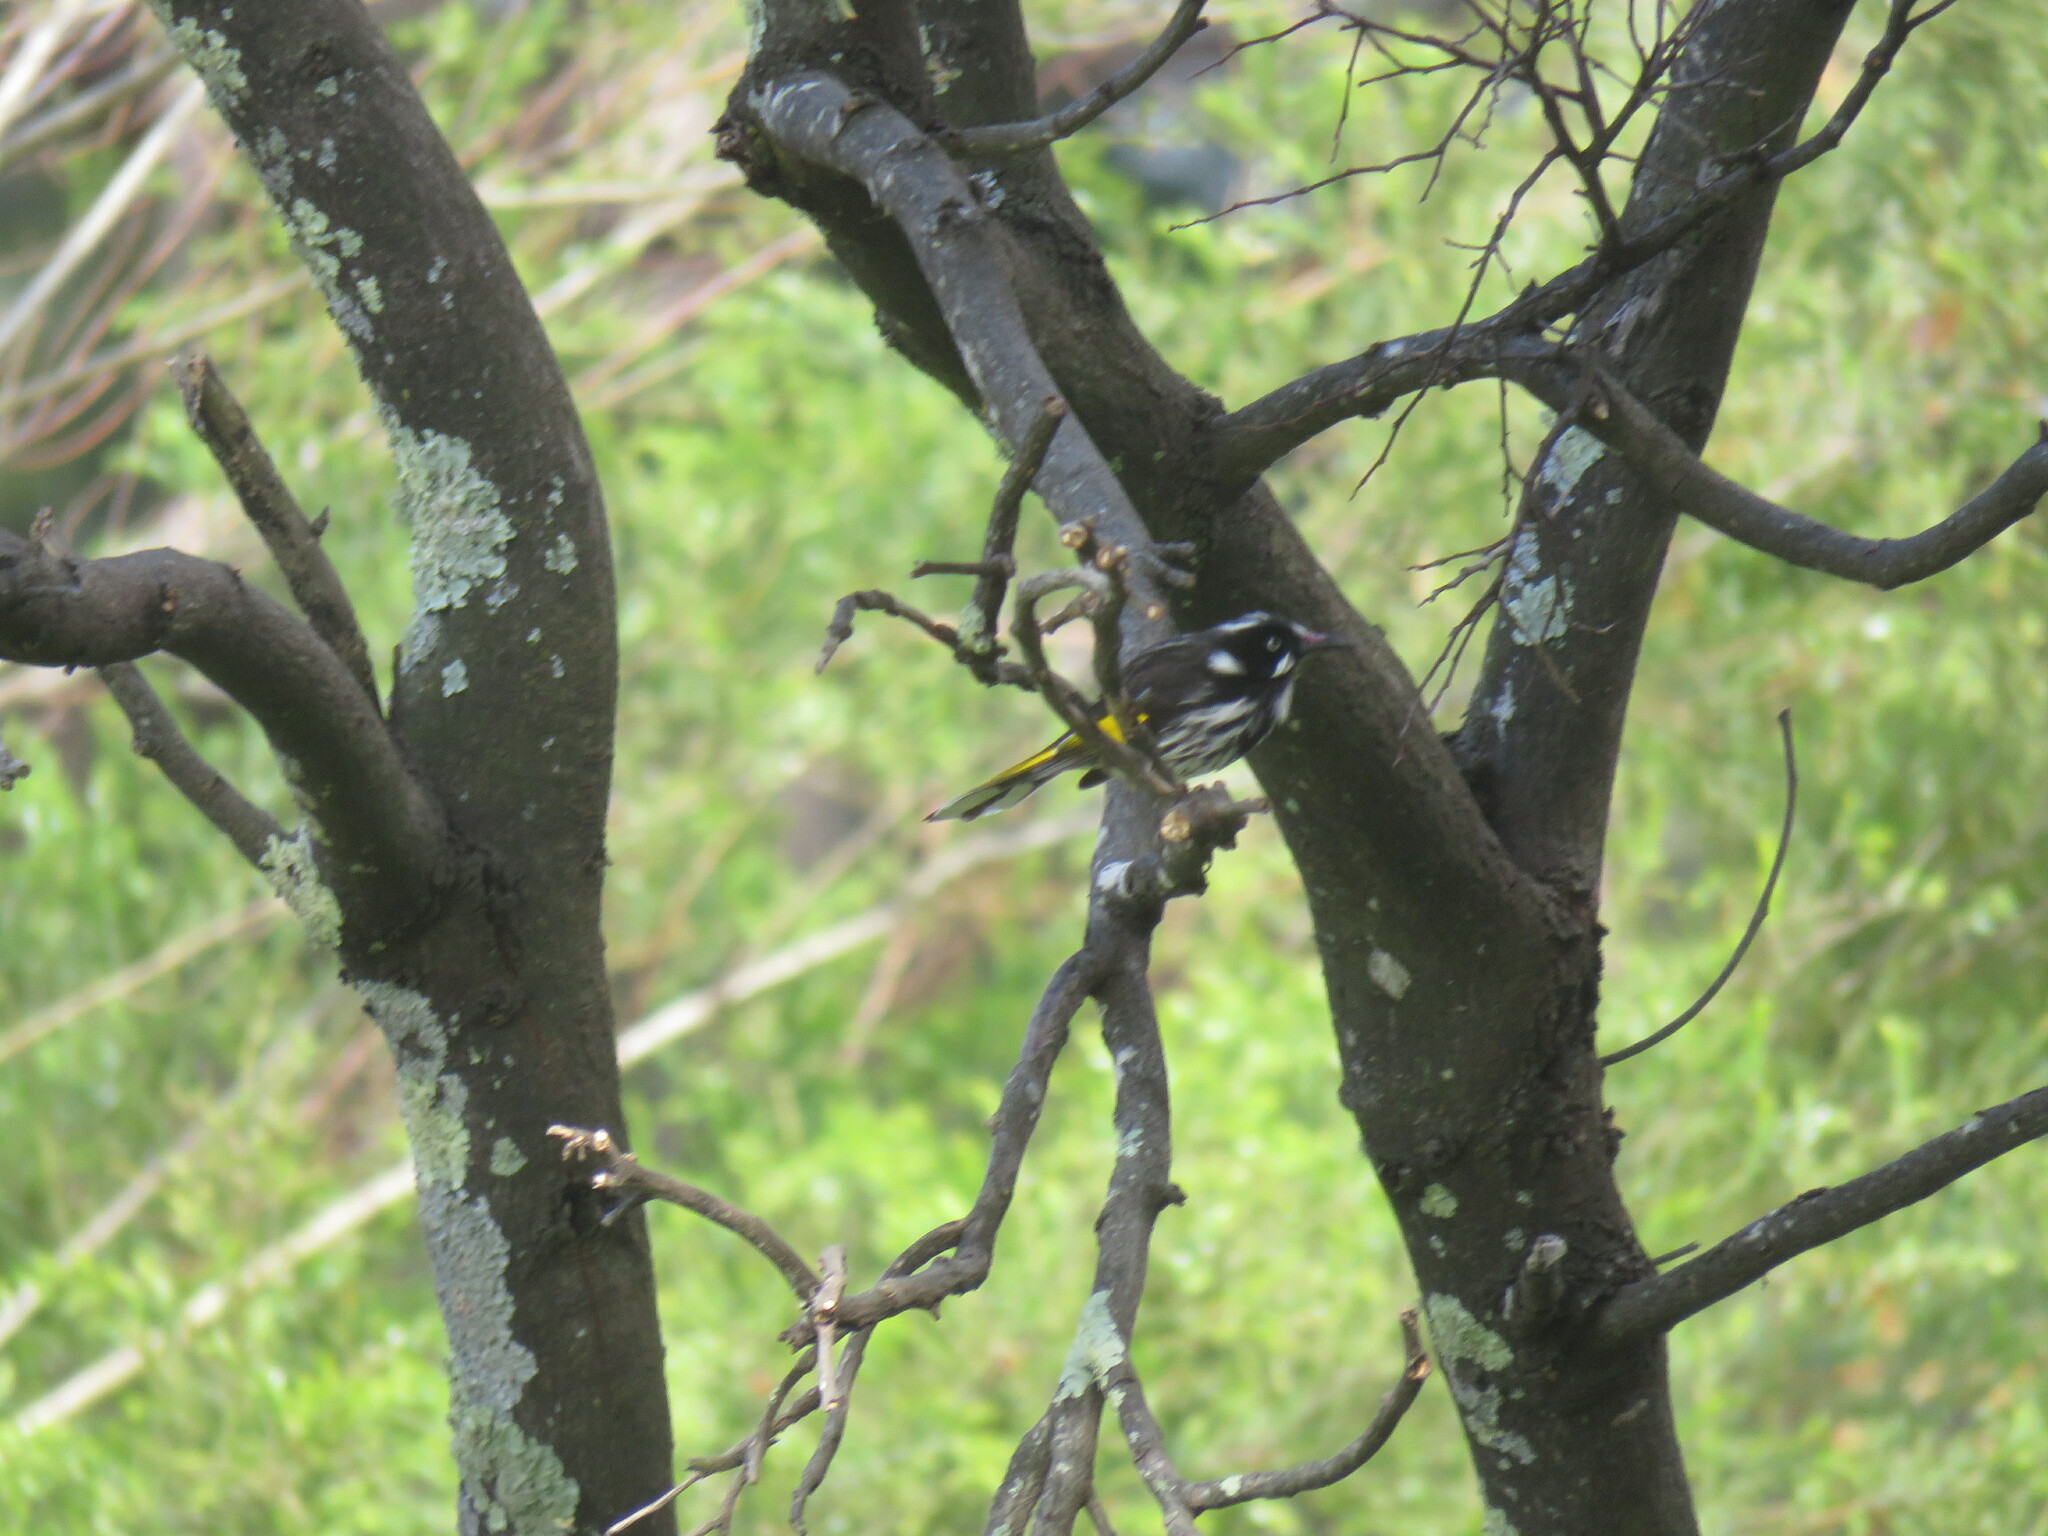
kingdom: Animalia
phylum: Chordata
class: Aves
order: Passeriformes
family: Meliphagidae
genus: Phylidonyris
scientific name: Phylidonyris novaehollandiae
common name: New holland honeyeater
